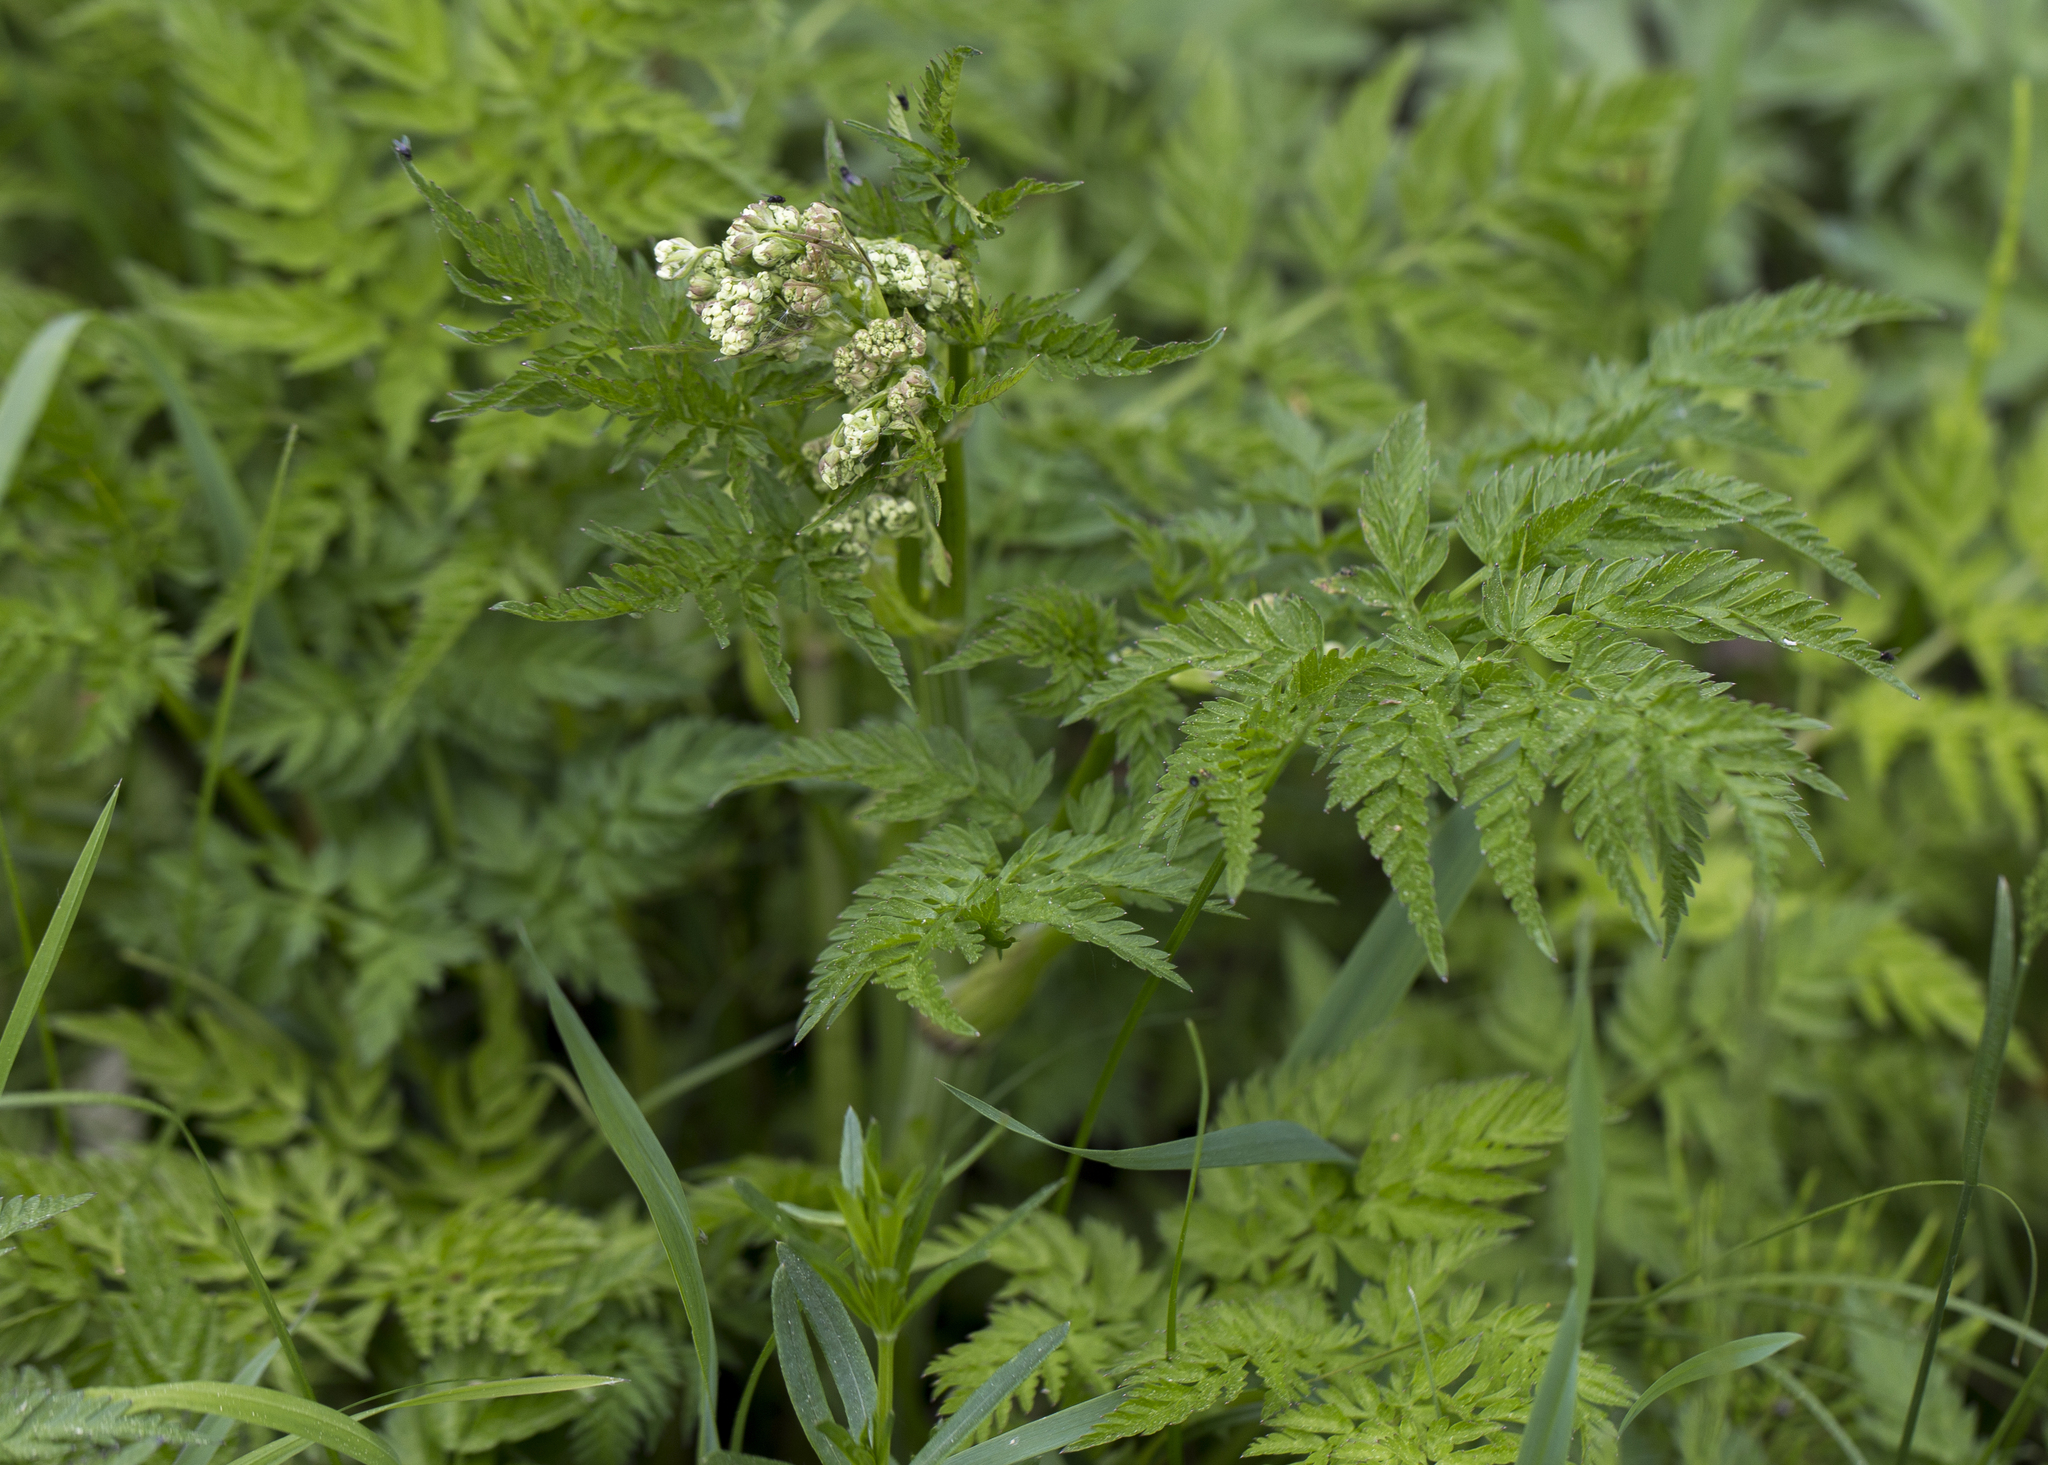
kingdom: Plantae
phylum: Tracheophyta
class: Magnoliopsida
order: Apiales
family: Apiaceae
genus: Anthriscus
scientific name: Anthriscus sylvestris
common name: Cow parsley
